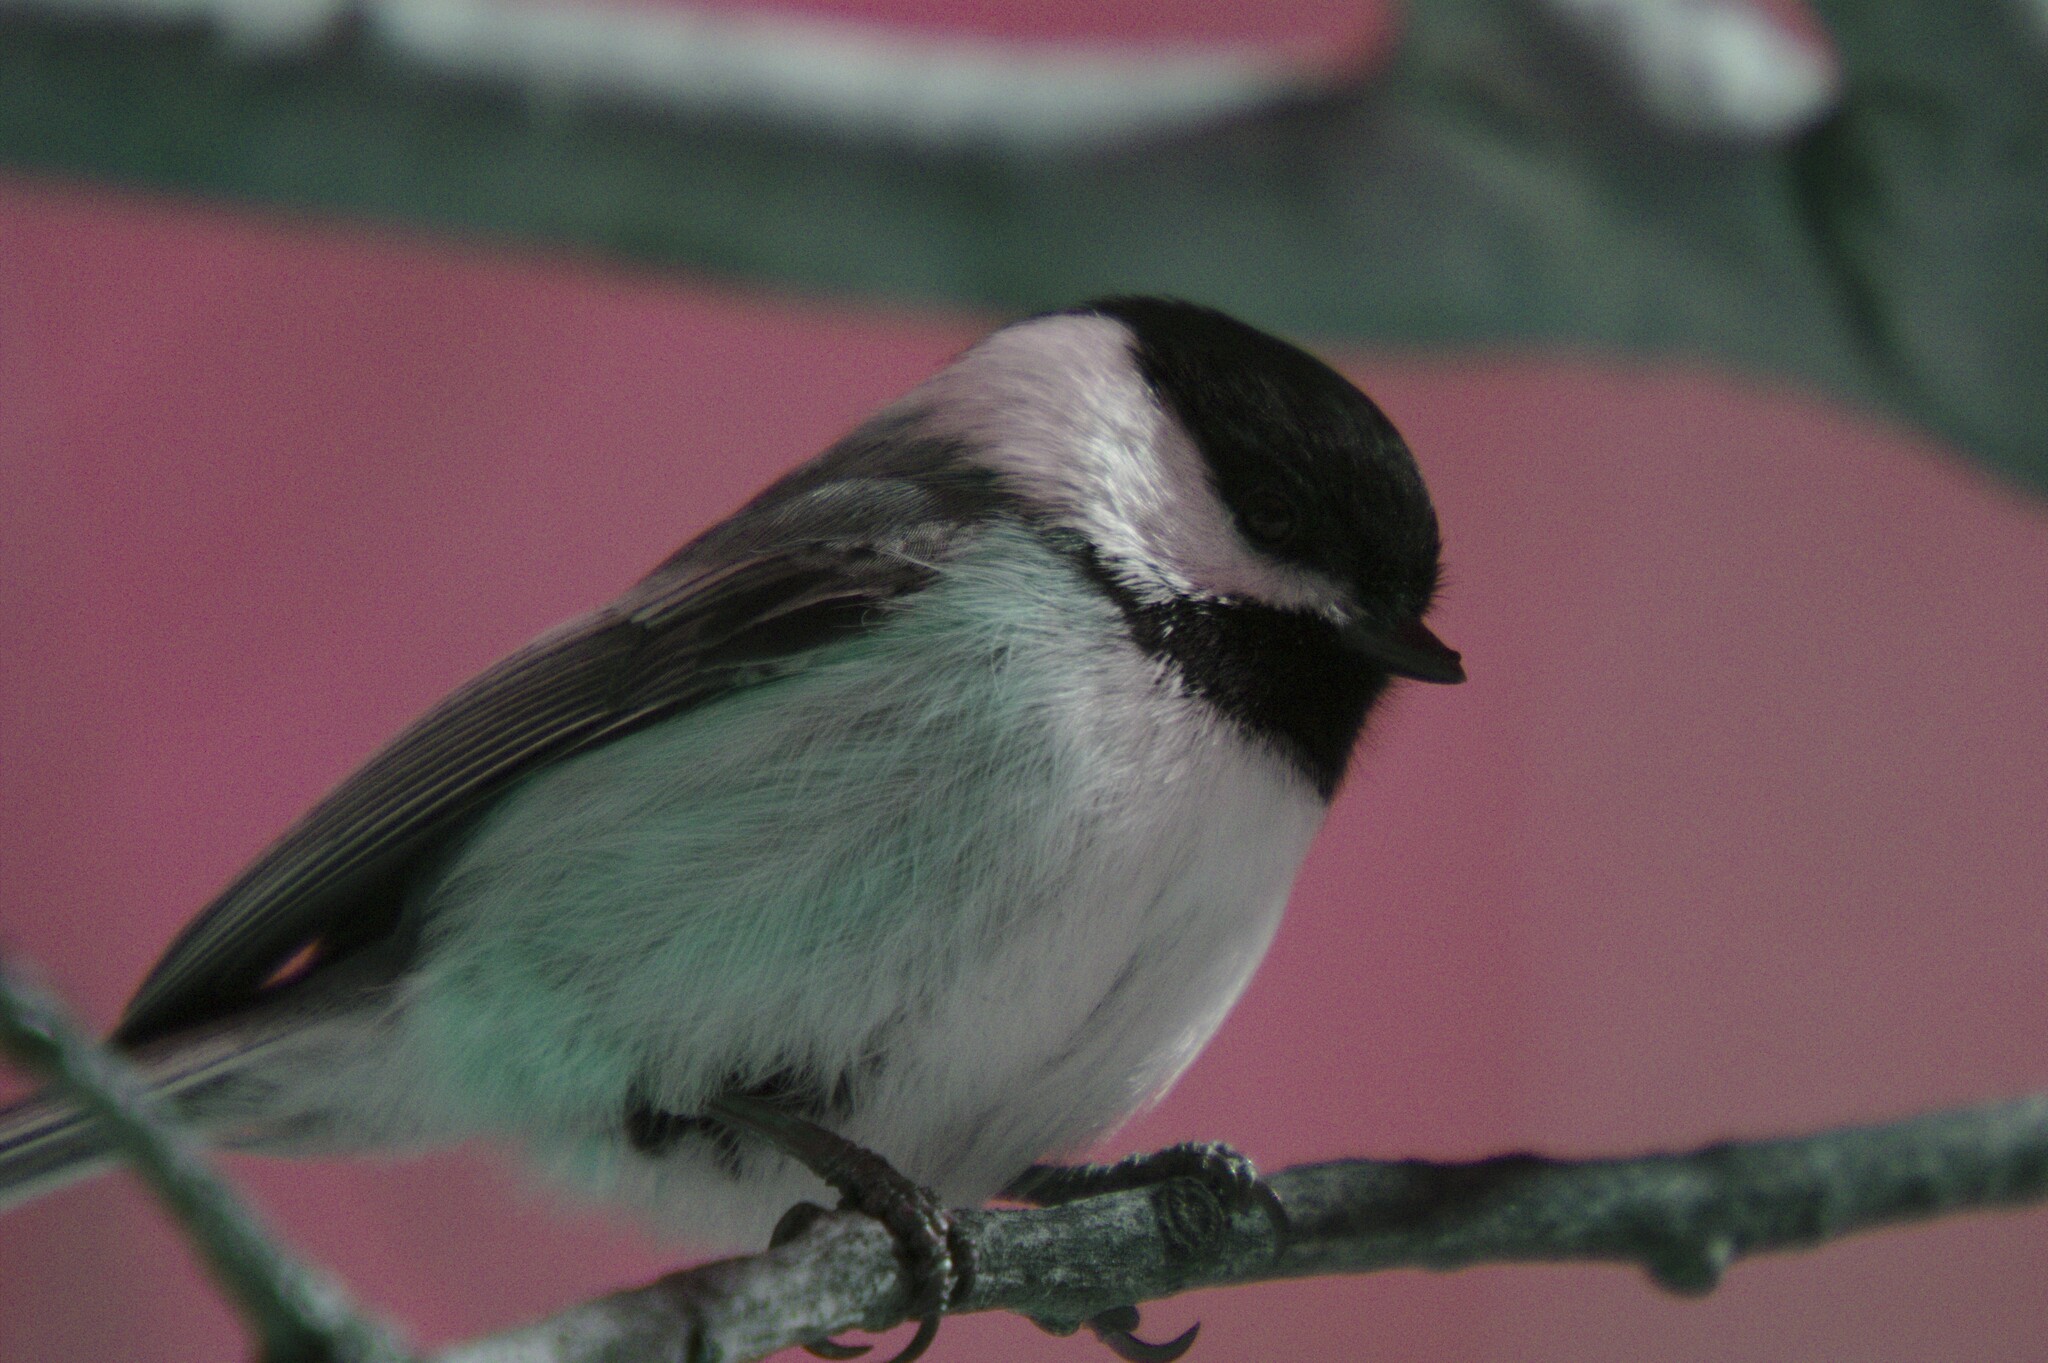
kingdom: Animalia
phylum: Chordata
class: Aves
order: Passeriformes
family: Paridae
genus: Poecile
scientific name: Poecile atricapillus
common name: Black-capped chickadee
